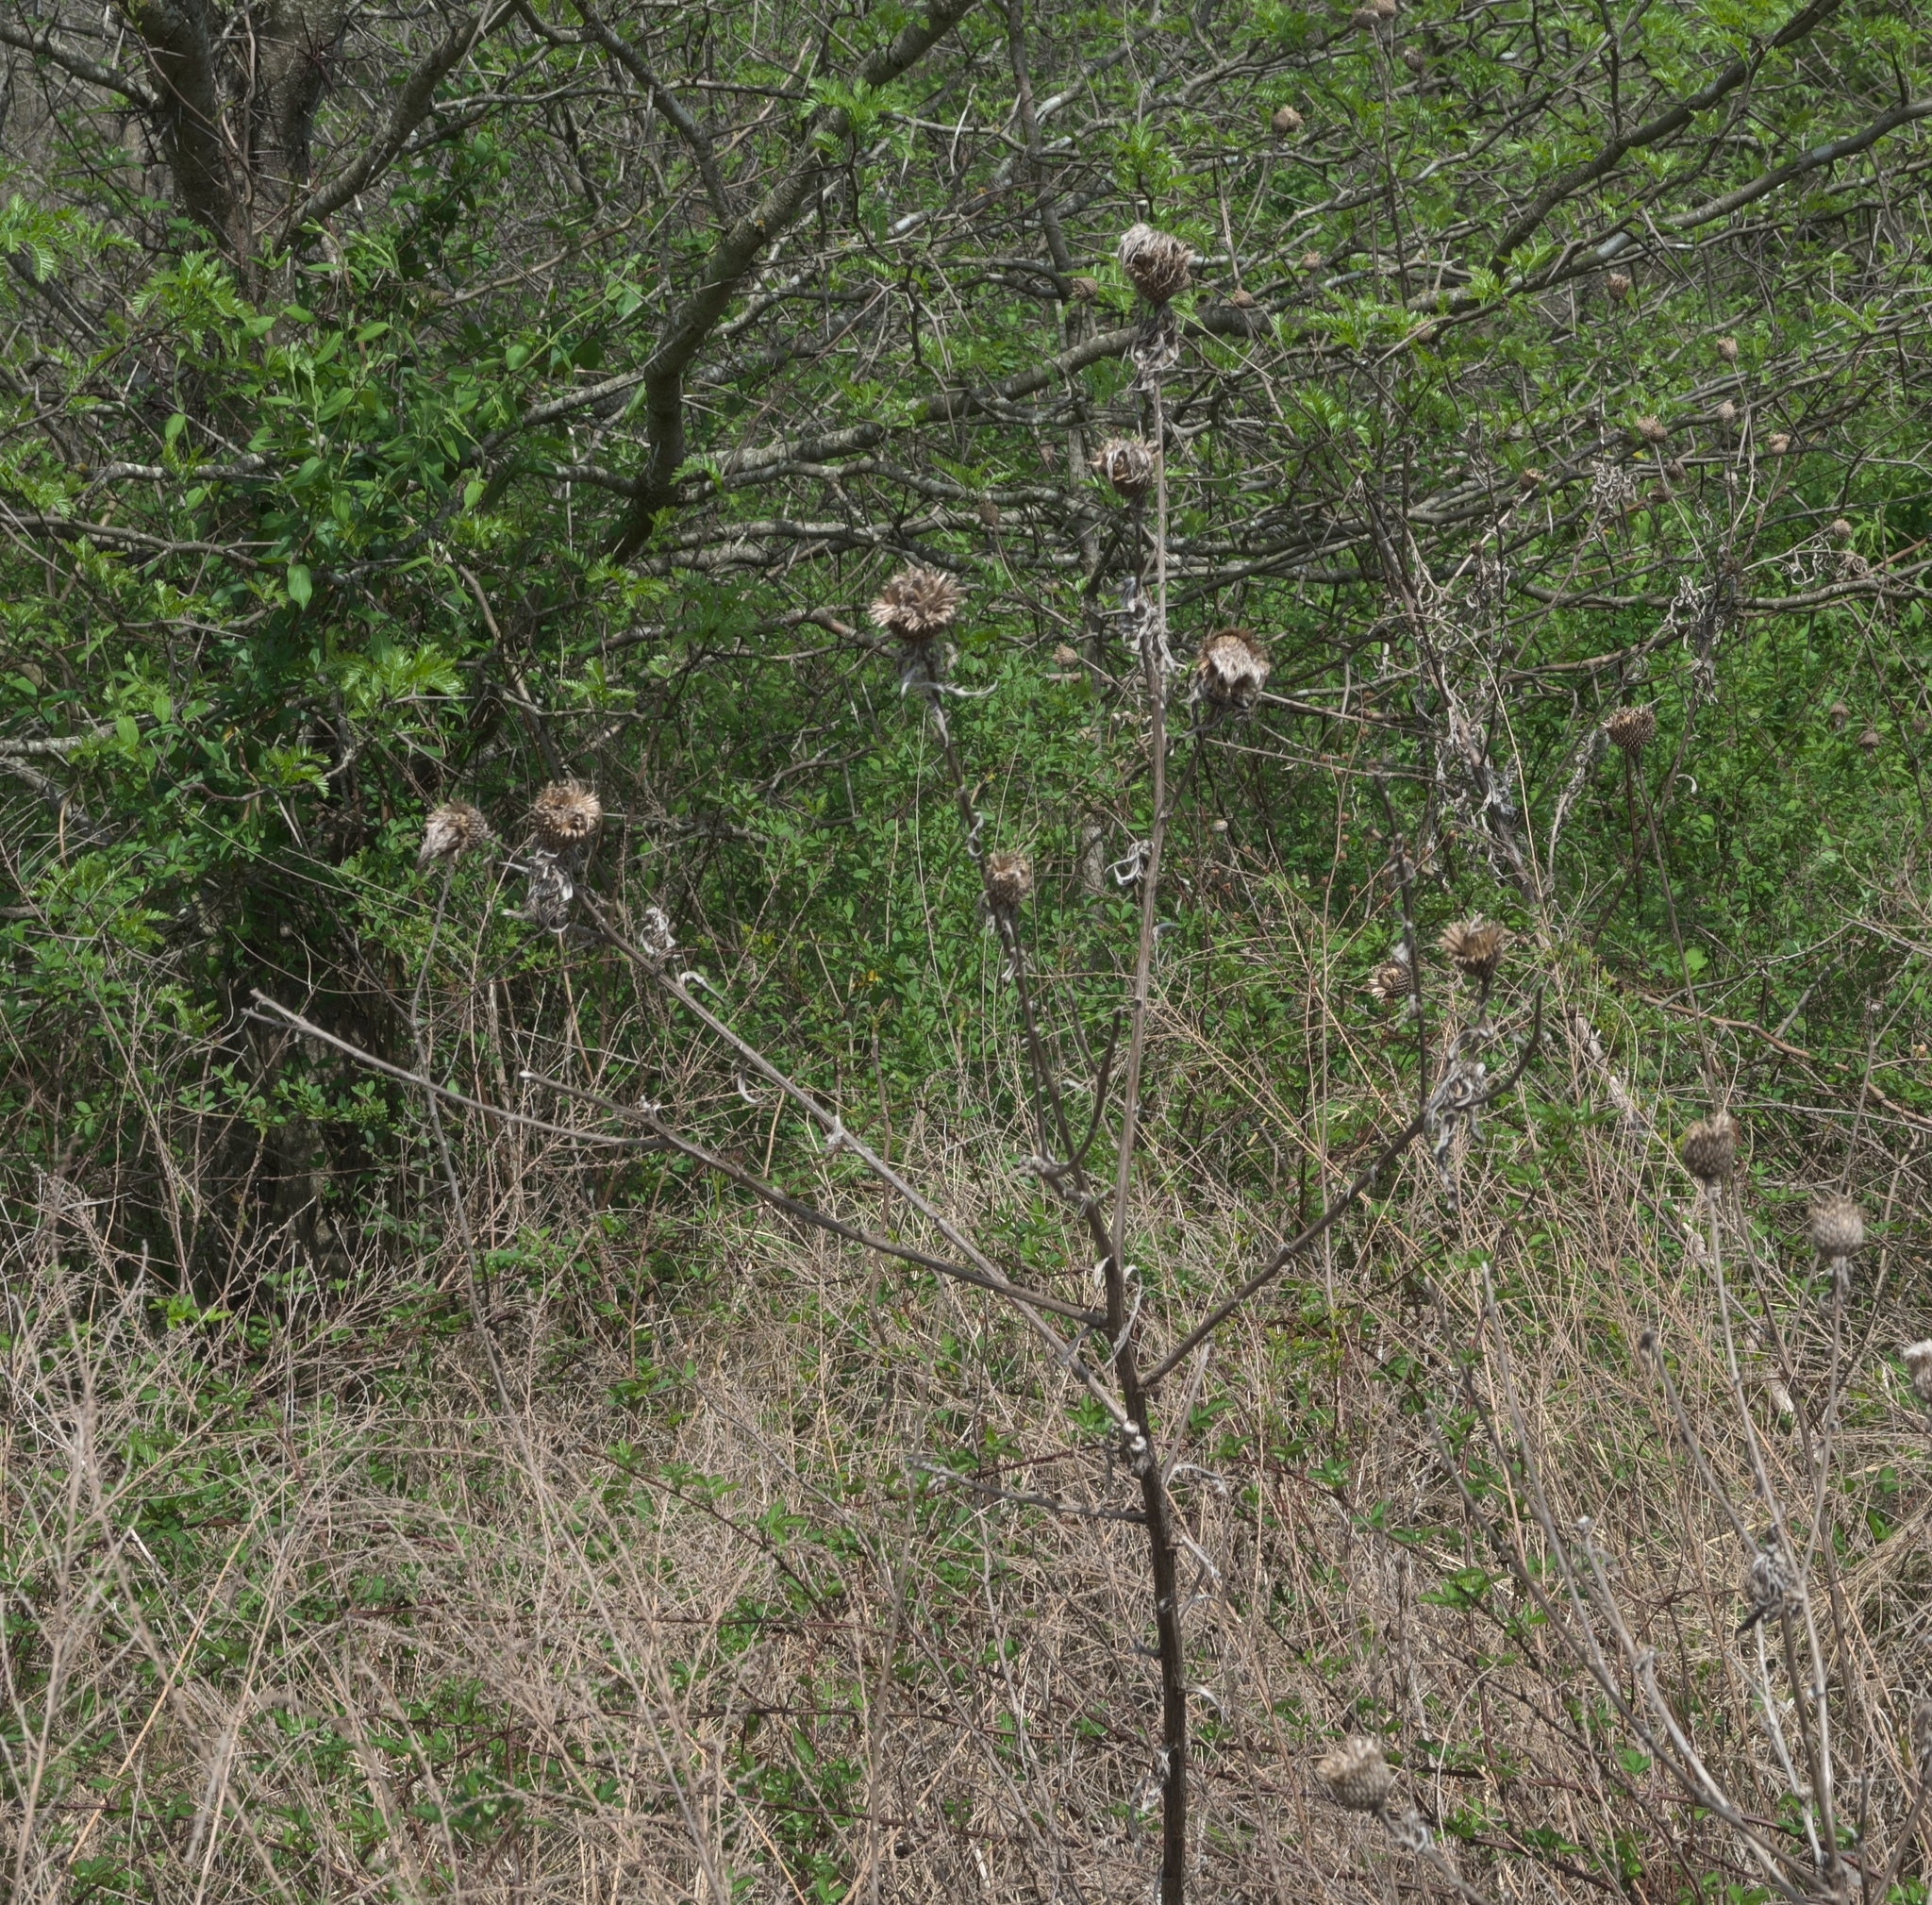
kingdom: Plantae
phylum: Tracheophyta
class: Magnoliopsida
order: Asterales
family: Asteraceae
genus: Cirsium
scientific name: Cirsium altissimum
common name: Roadside thistle
